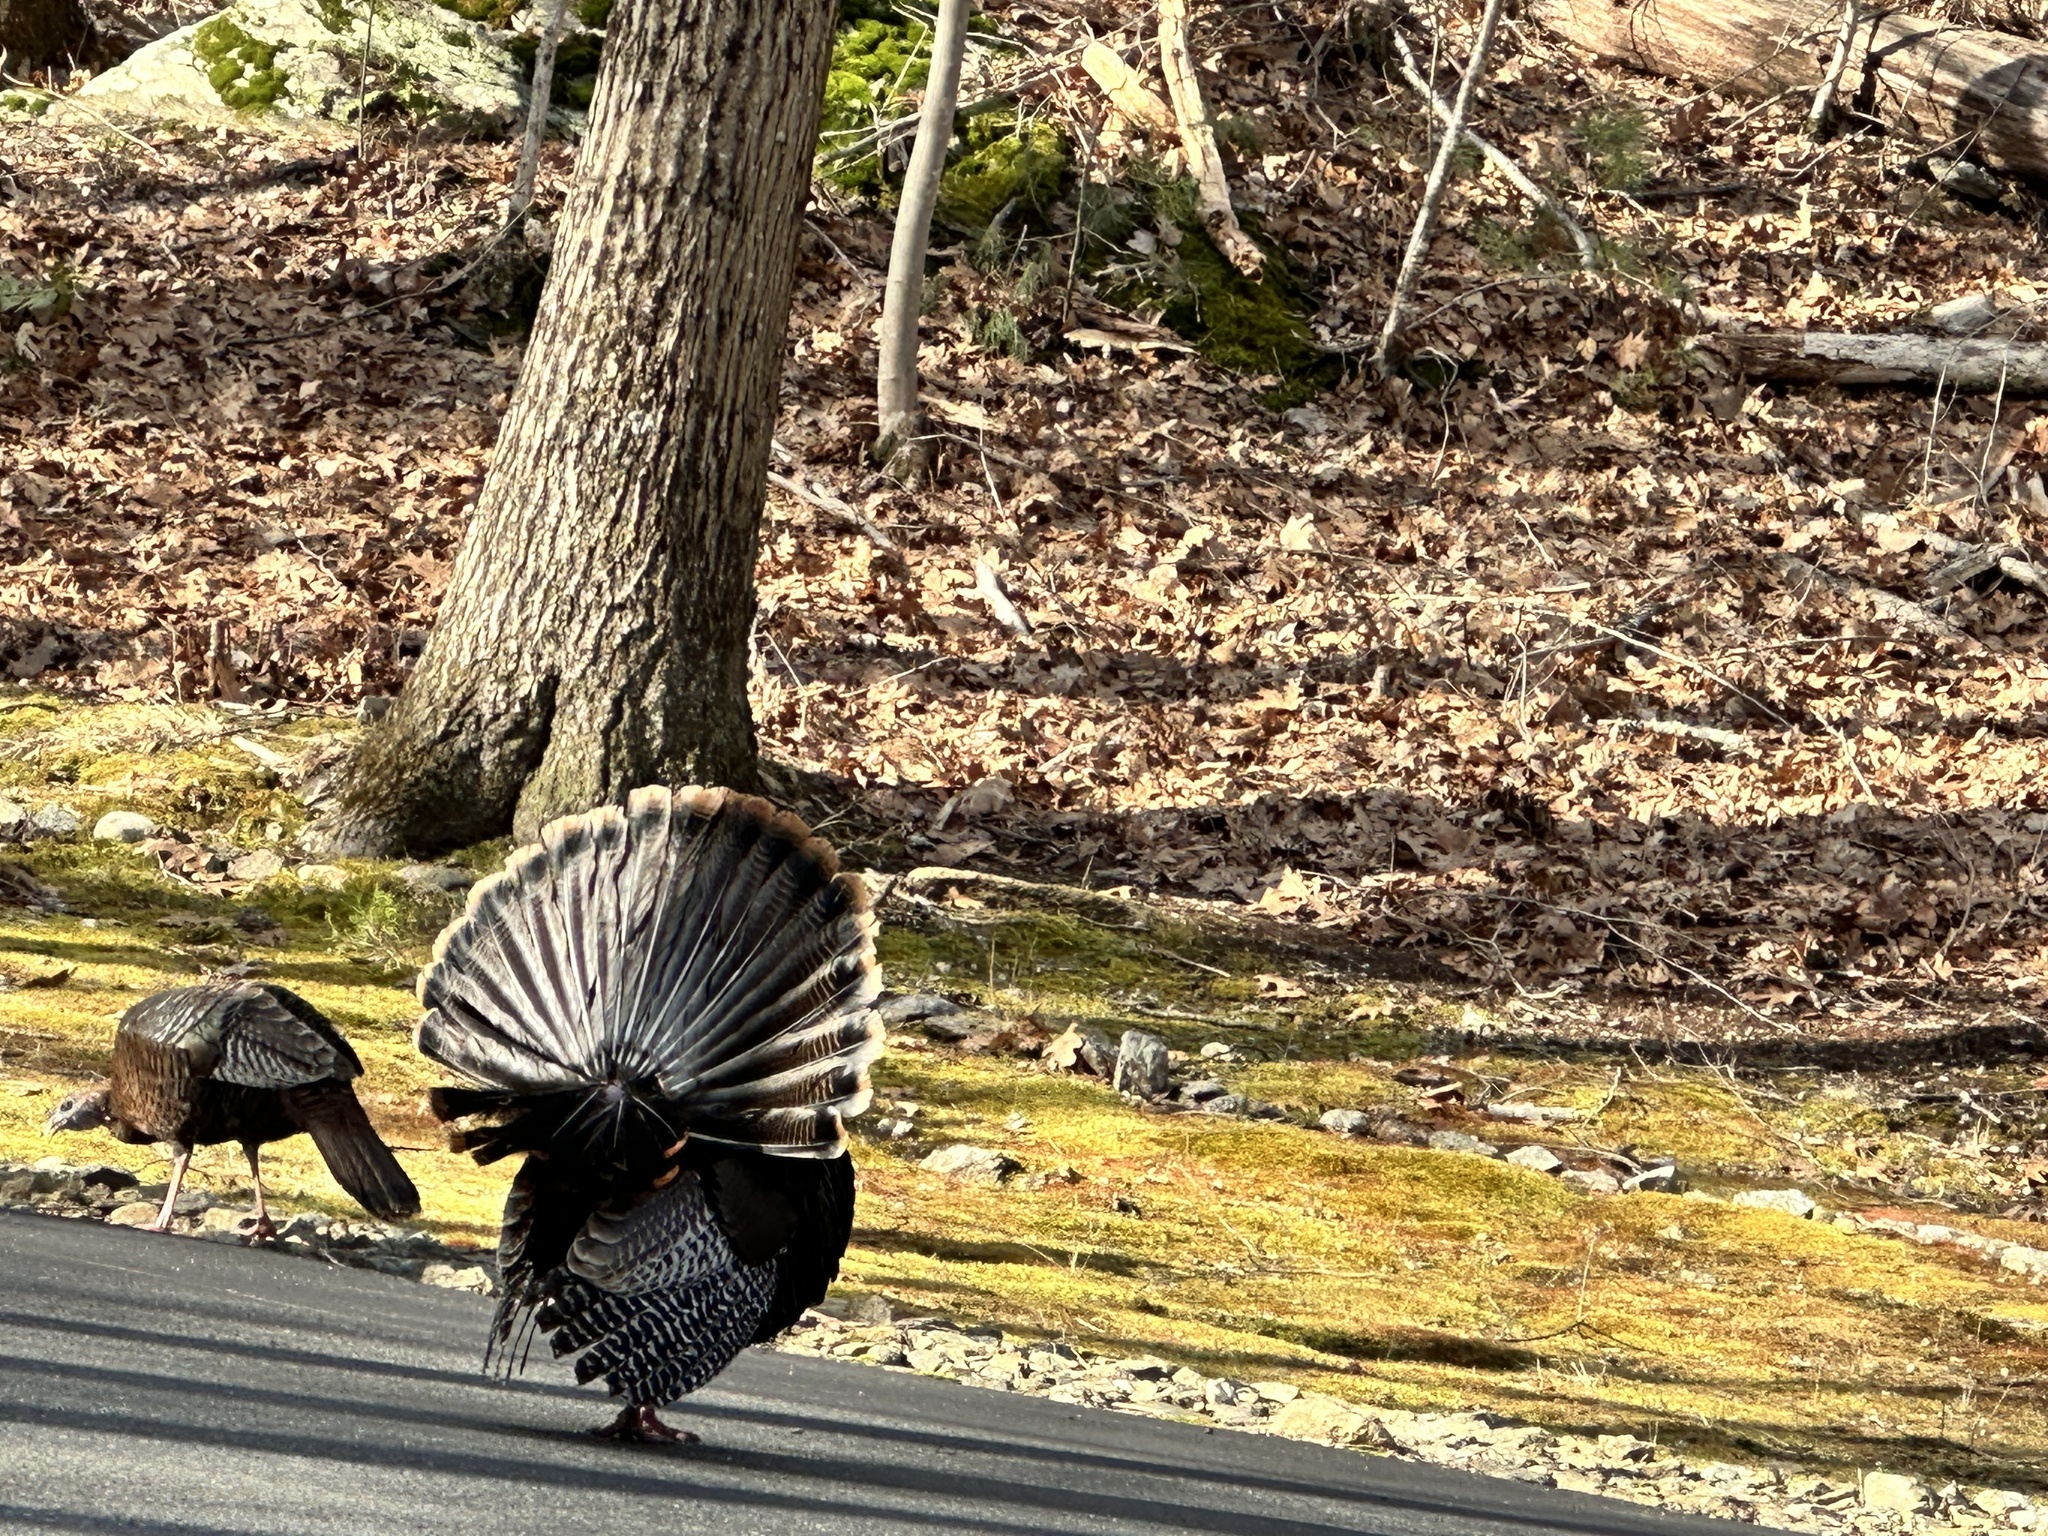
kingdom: Animalia
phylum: Chordata
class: Aves
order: Galliformes
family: Phasianidae
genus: Meleagris
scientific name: Meleagris gallopavo
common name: Wild turkey
